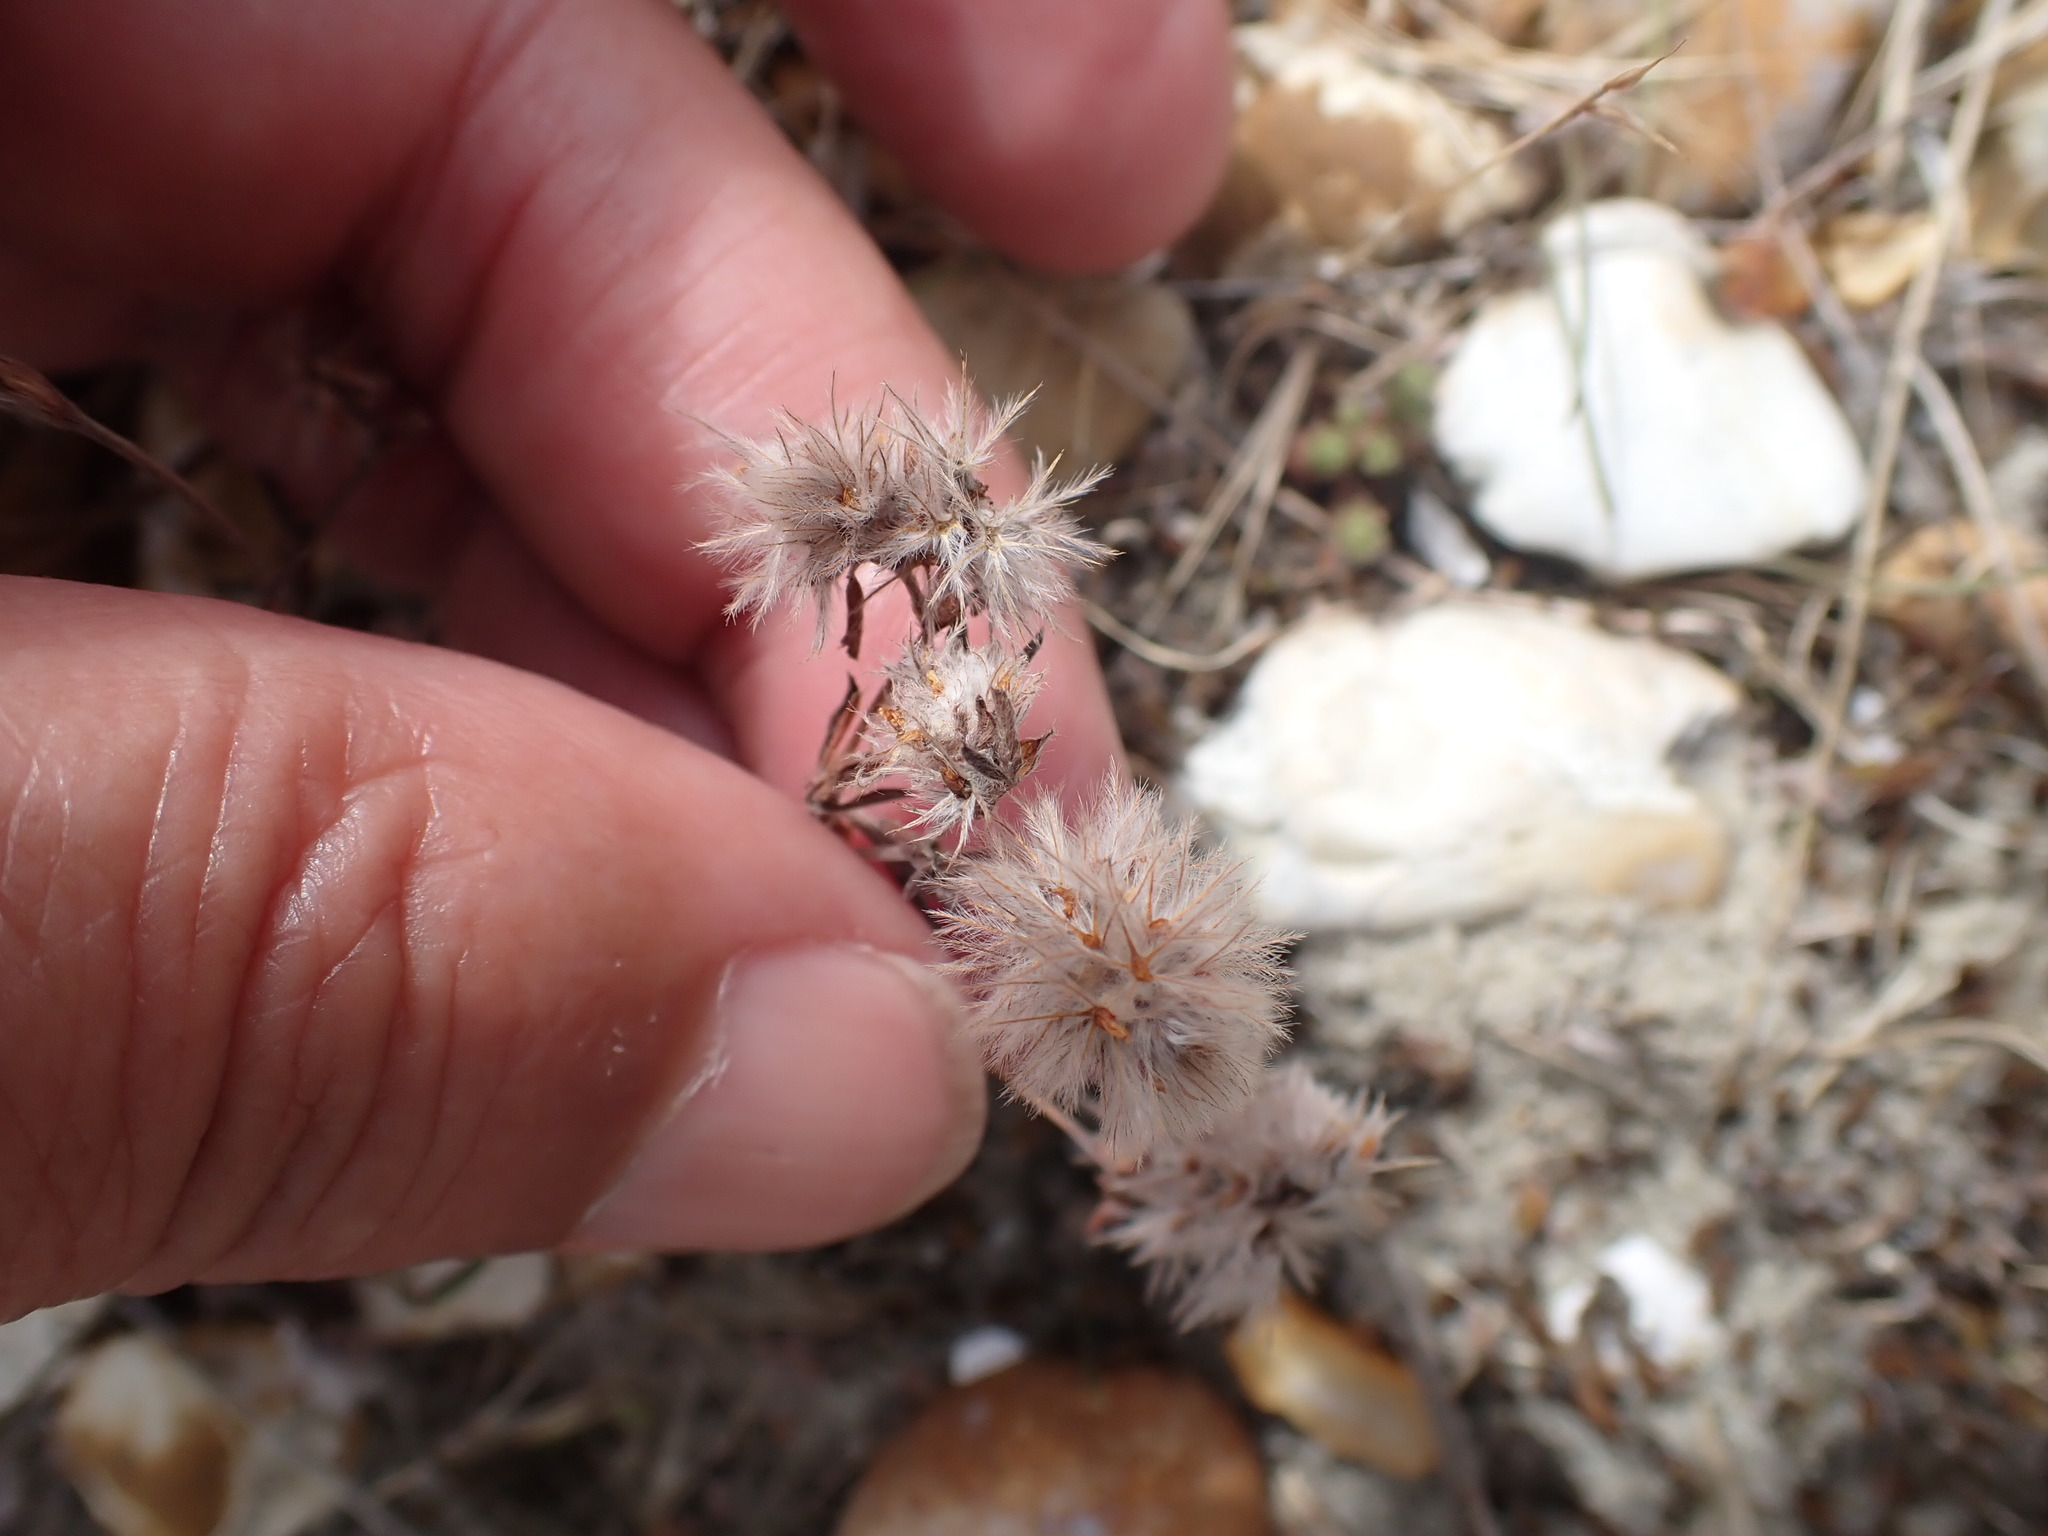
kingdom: Plantae
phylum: Tracheophyta
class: Magnoliopsida
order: Fabales
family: Fabaceae
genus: Trifolium
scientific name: Trifolium arvense
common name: Hare's-foot clover
